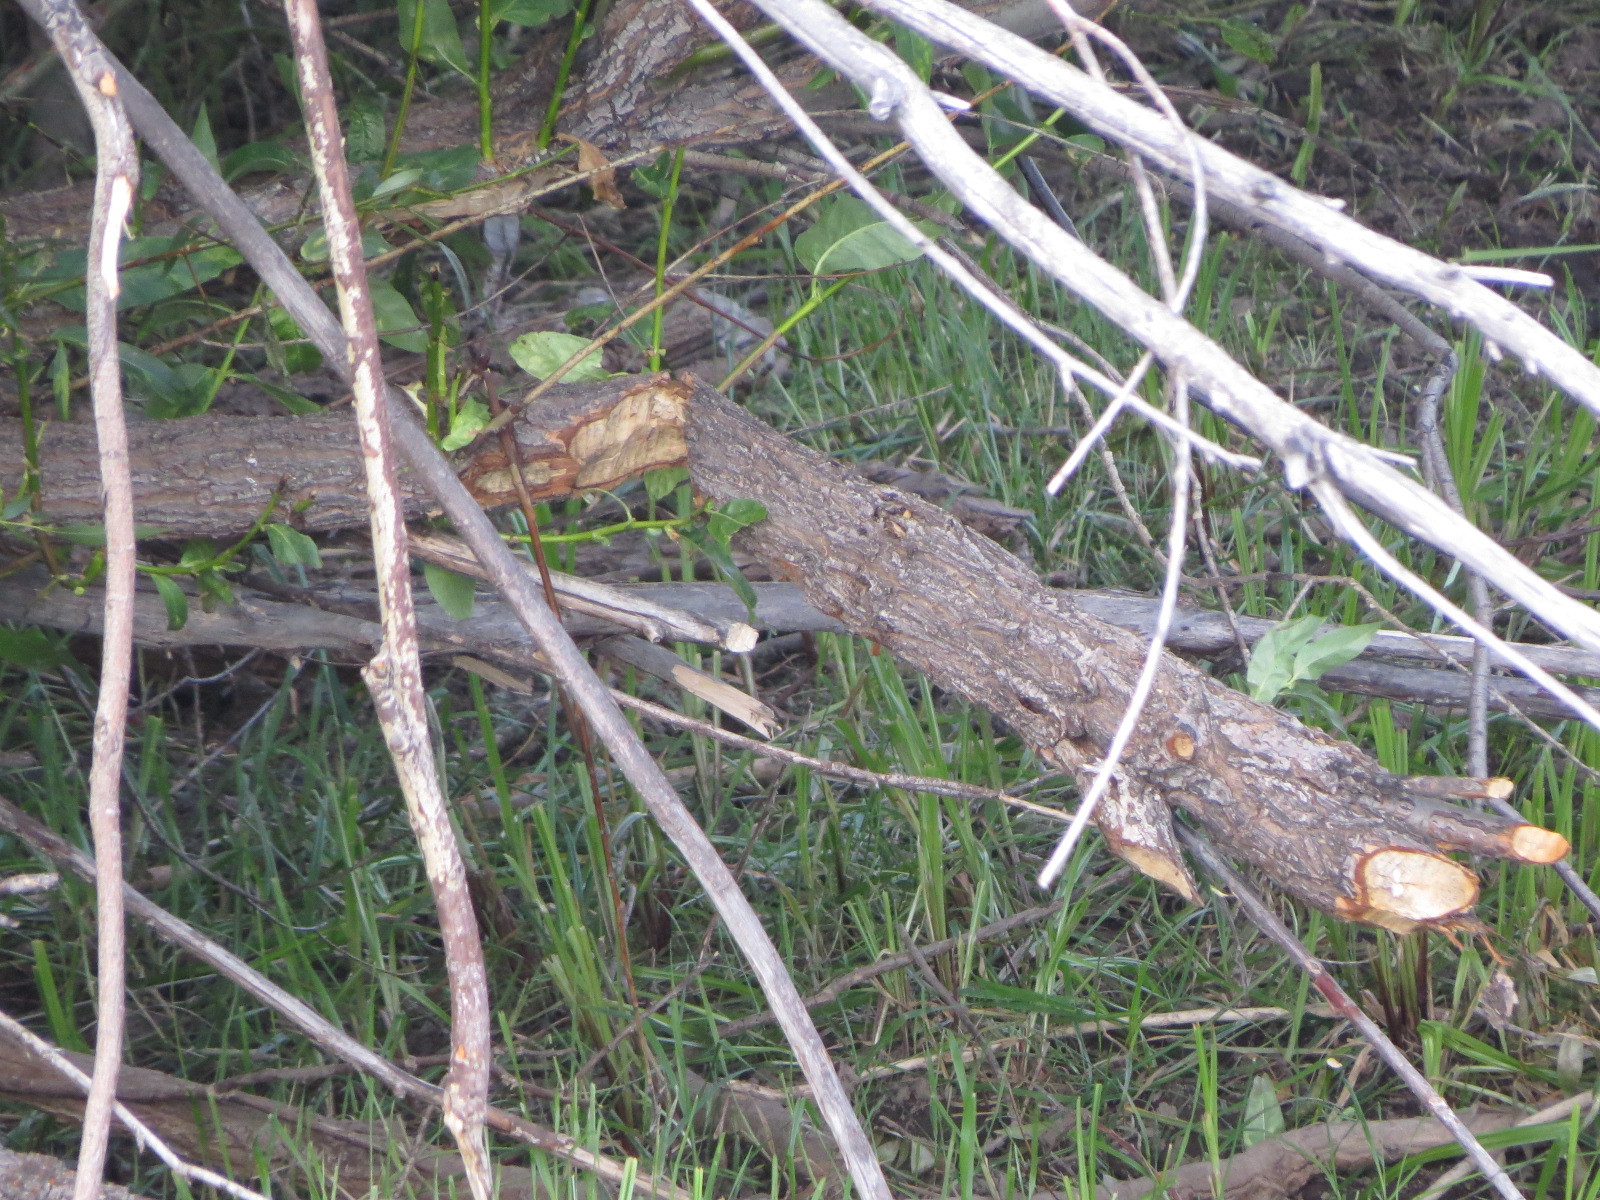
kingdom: Animalia
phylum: Chordata
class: Mammalia
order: Rodentia
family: Castoridae
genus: Castor
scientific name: Castor canadensis
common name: American beaver
